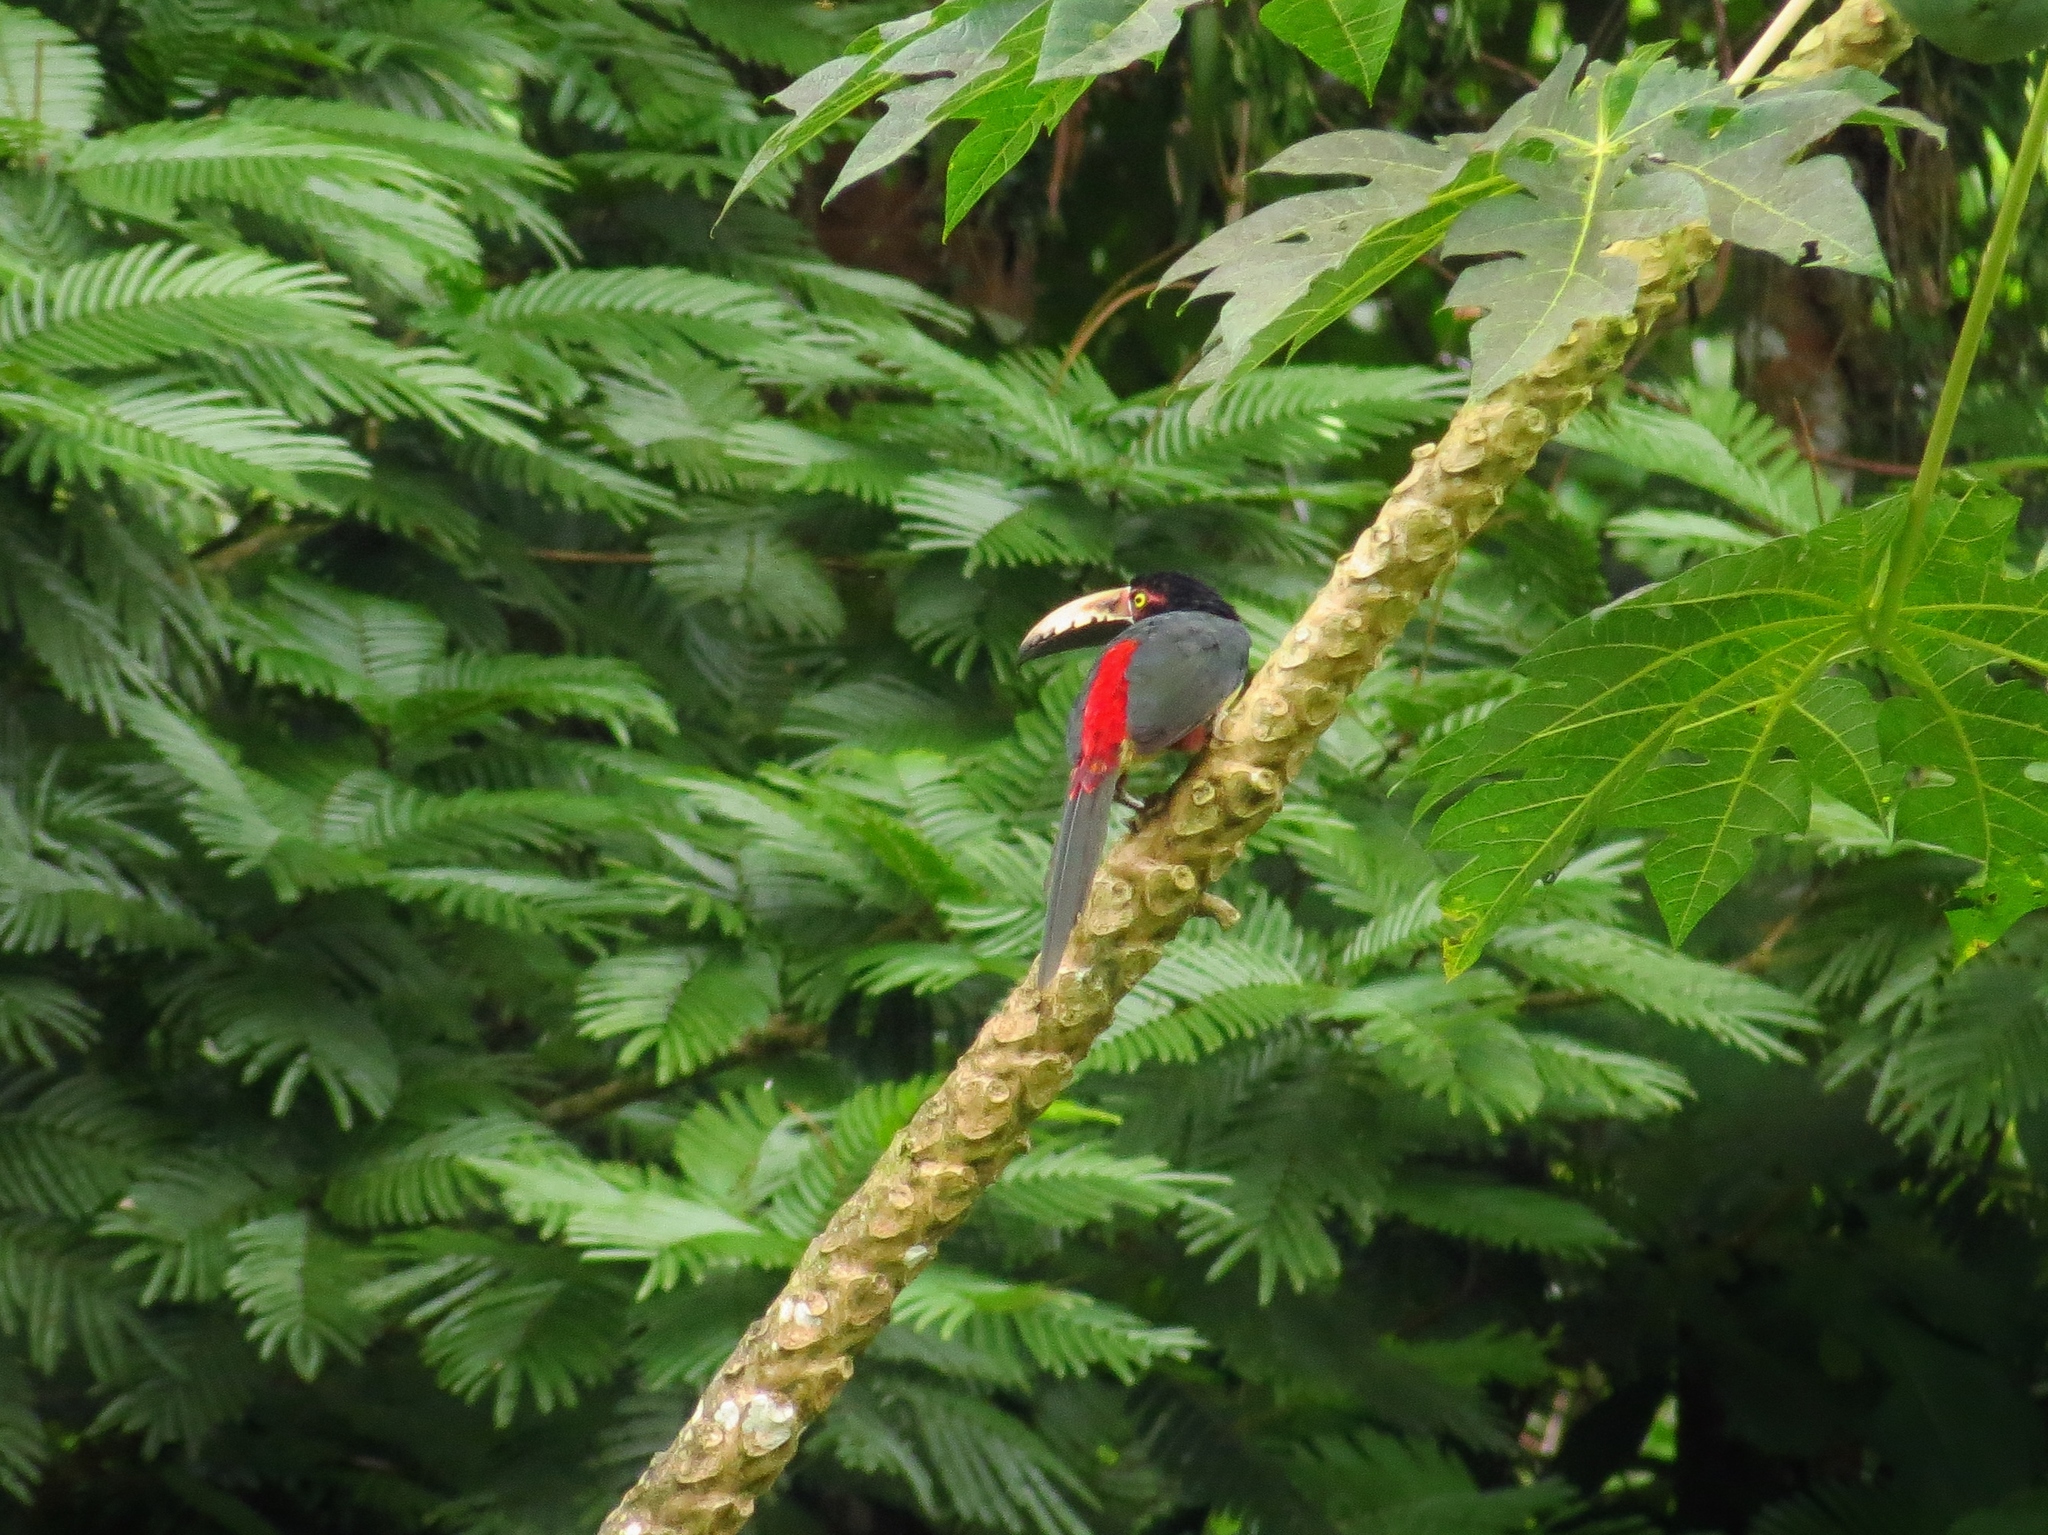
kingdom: Animalia
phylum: Chordata
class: Aves
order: Piciformes
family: Ramphastidae
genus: Pteroglossus
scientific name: Pteroglossus torquatus
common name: Collared aracari
